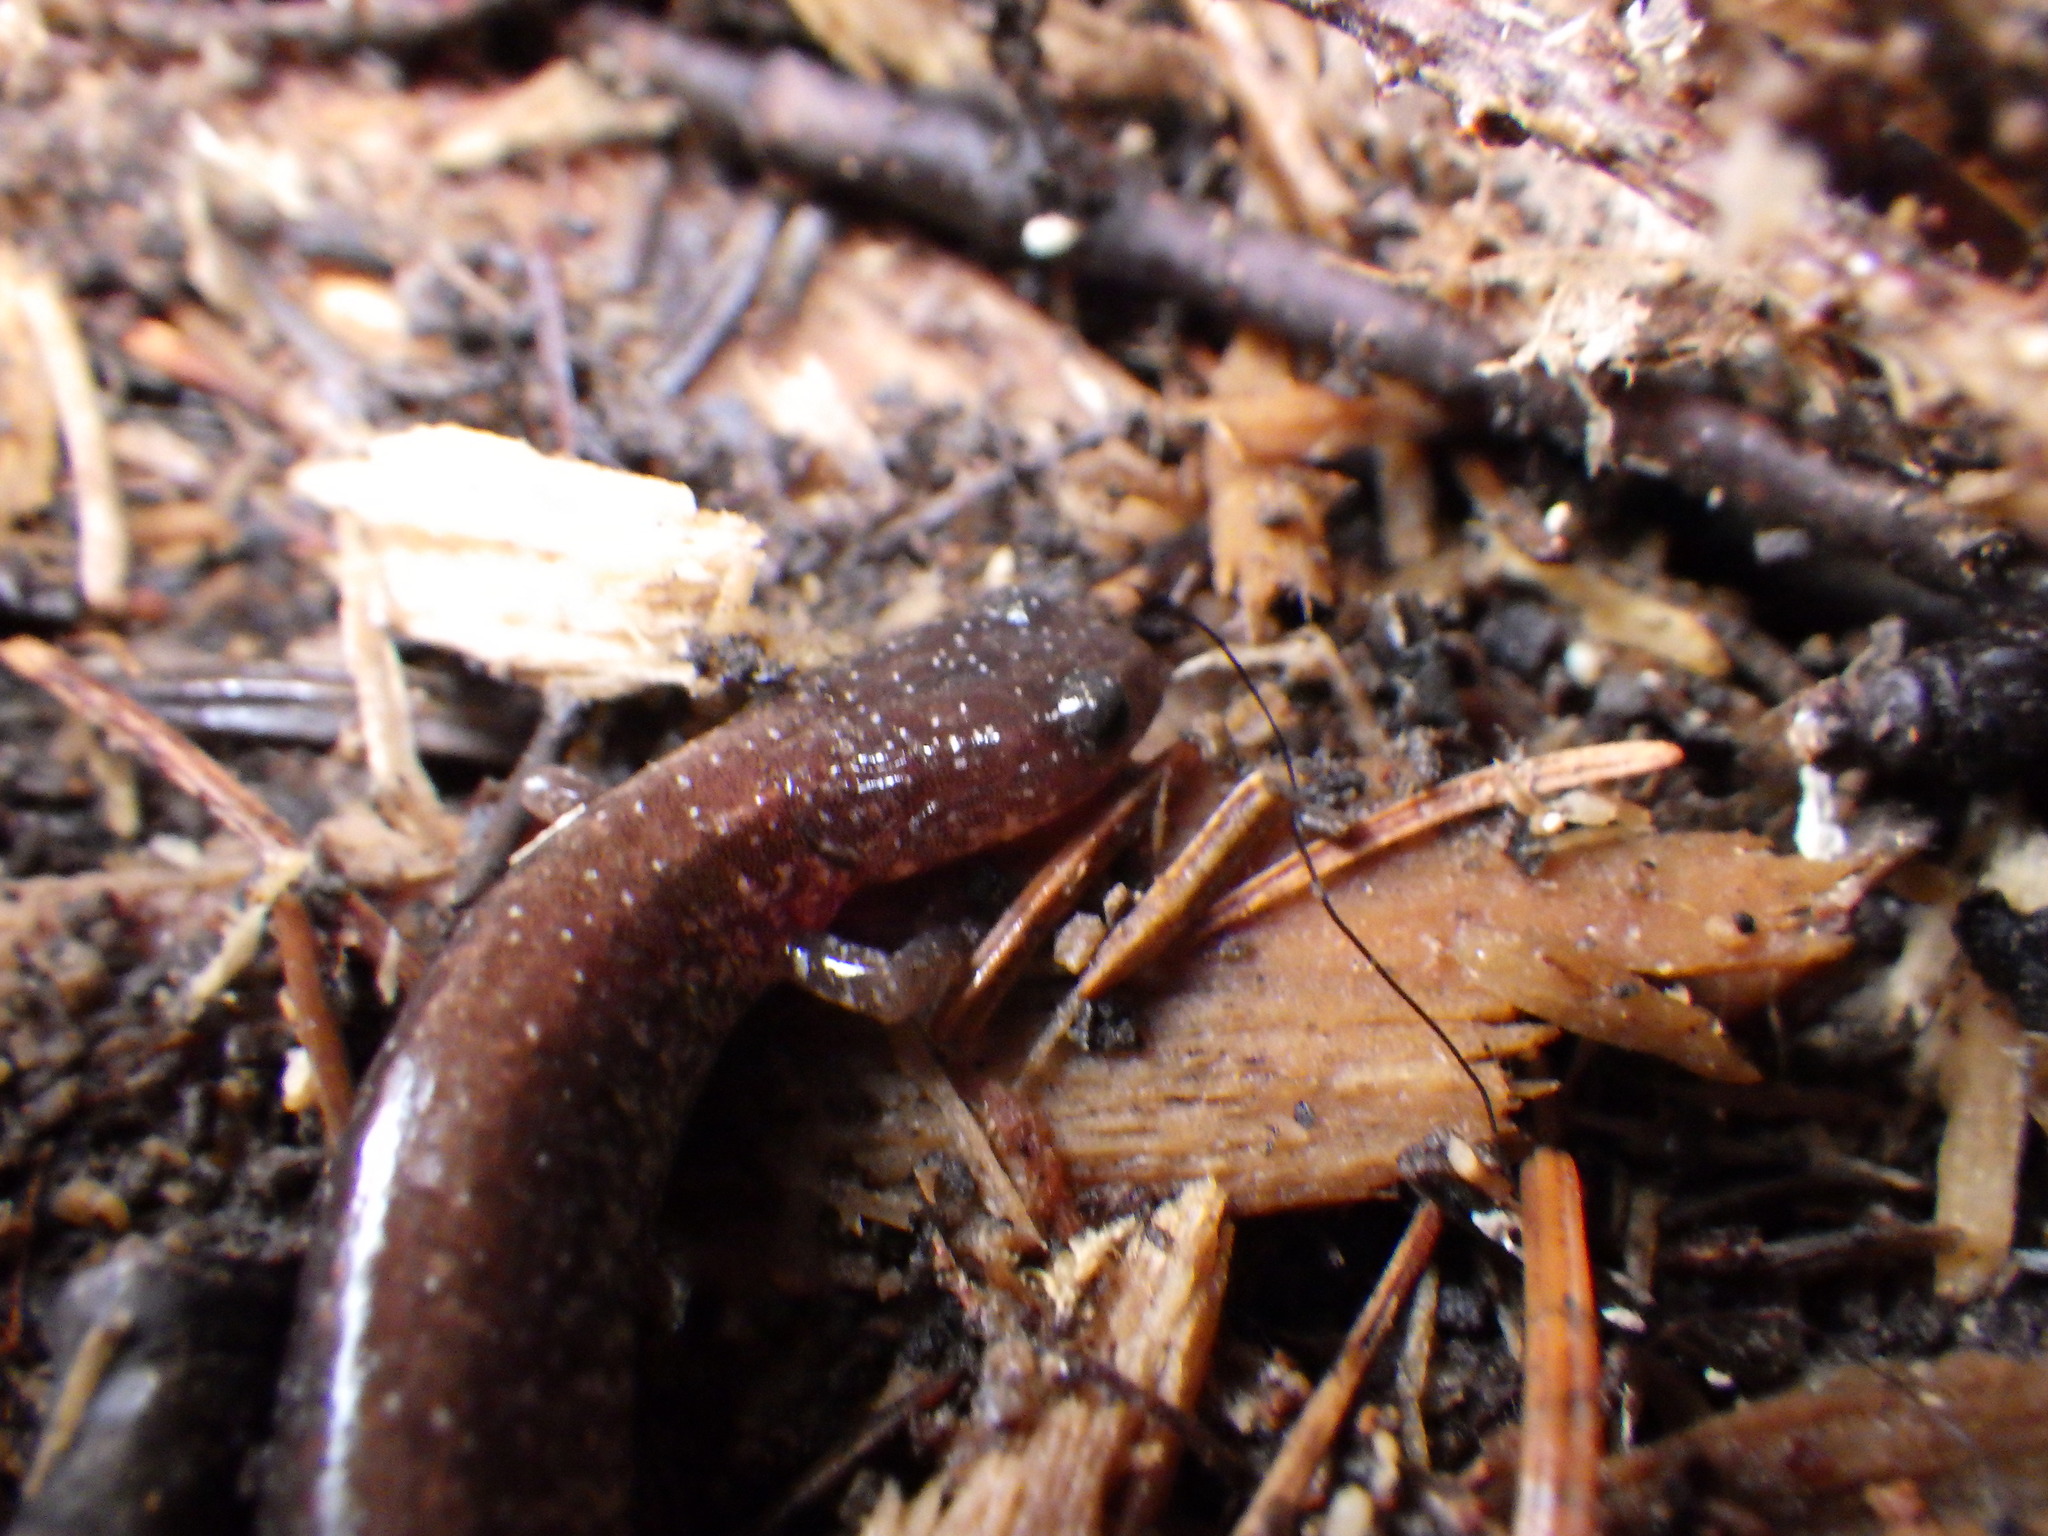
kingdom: Animalia
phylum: Chordata
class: Amphibia
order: Caudata
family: Plethodontidae
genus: Plethodon
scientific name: Plethodon cinereus
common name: Redback salamander
